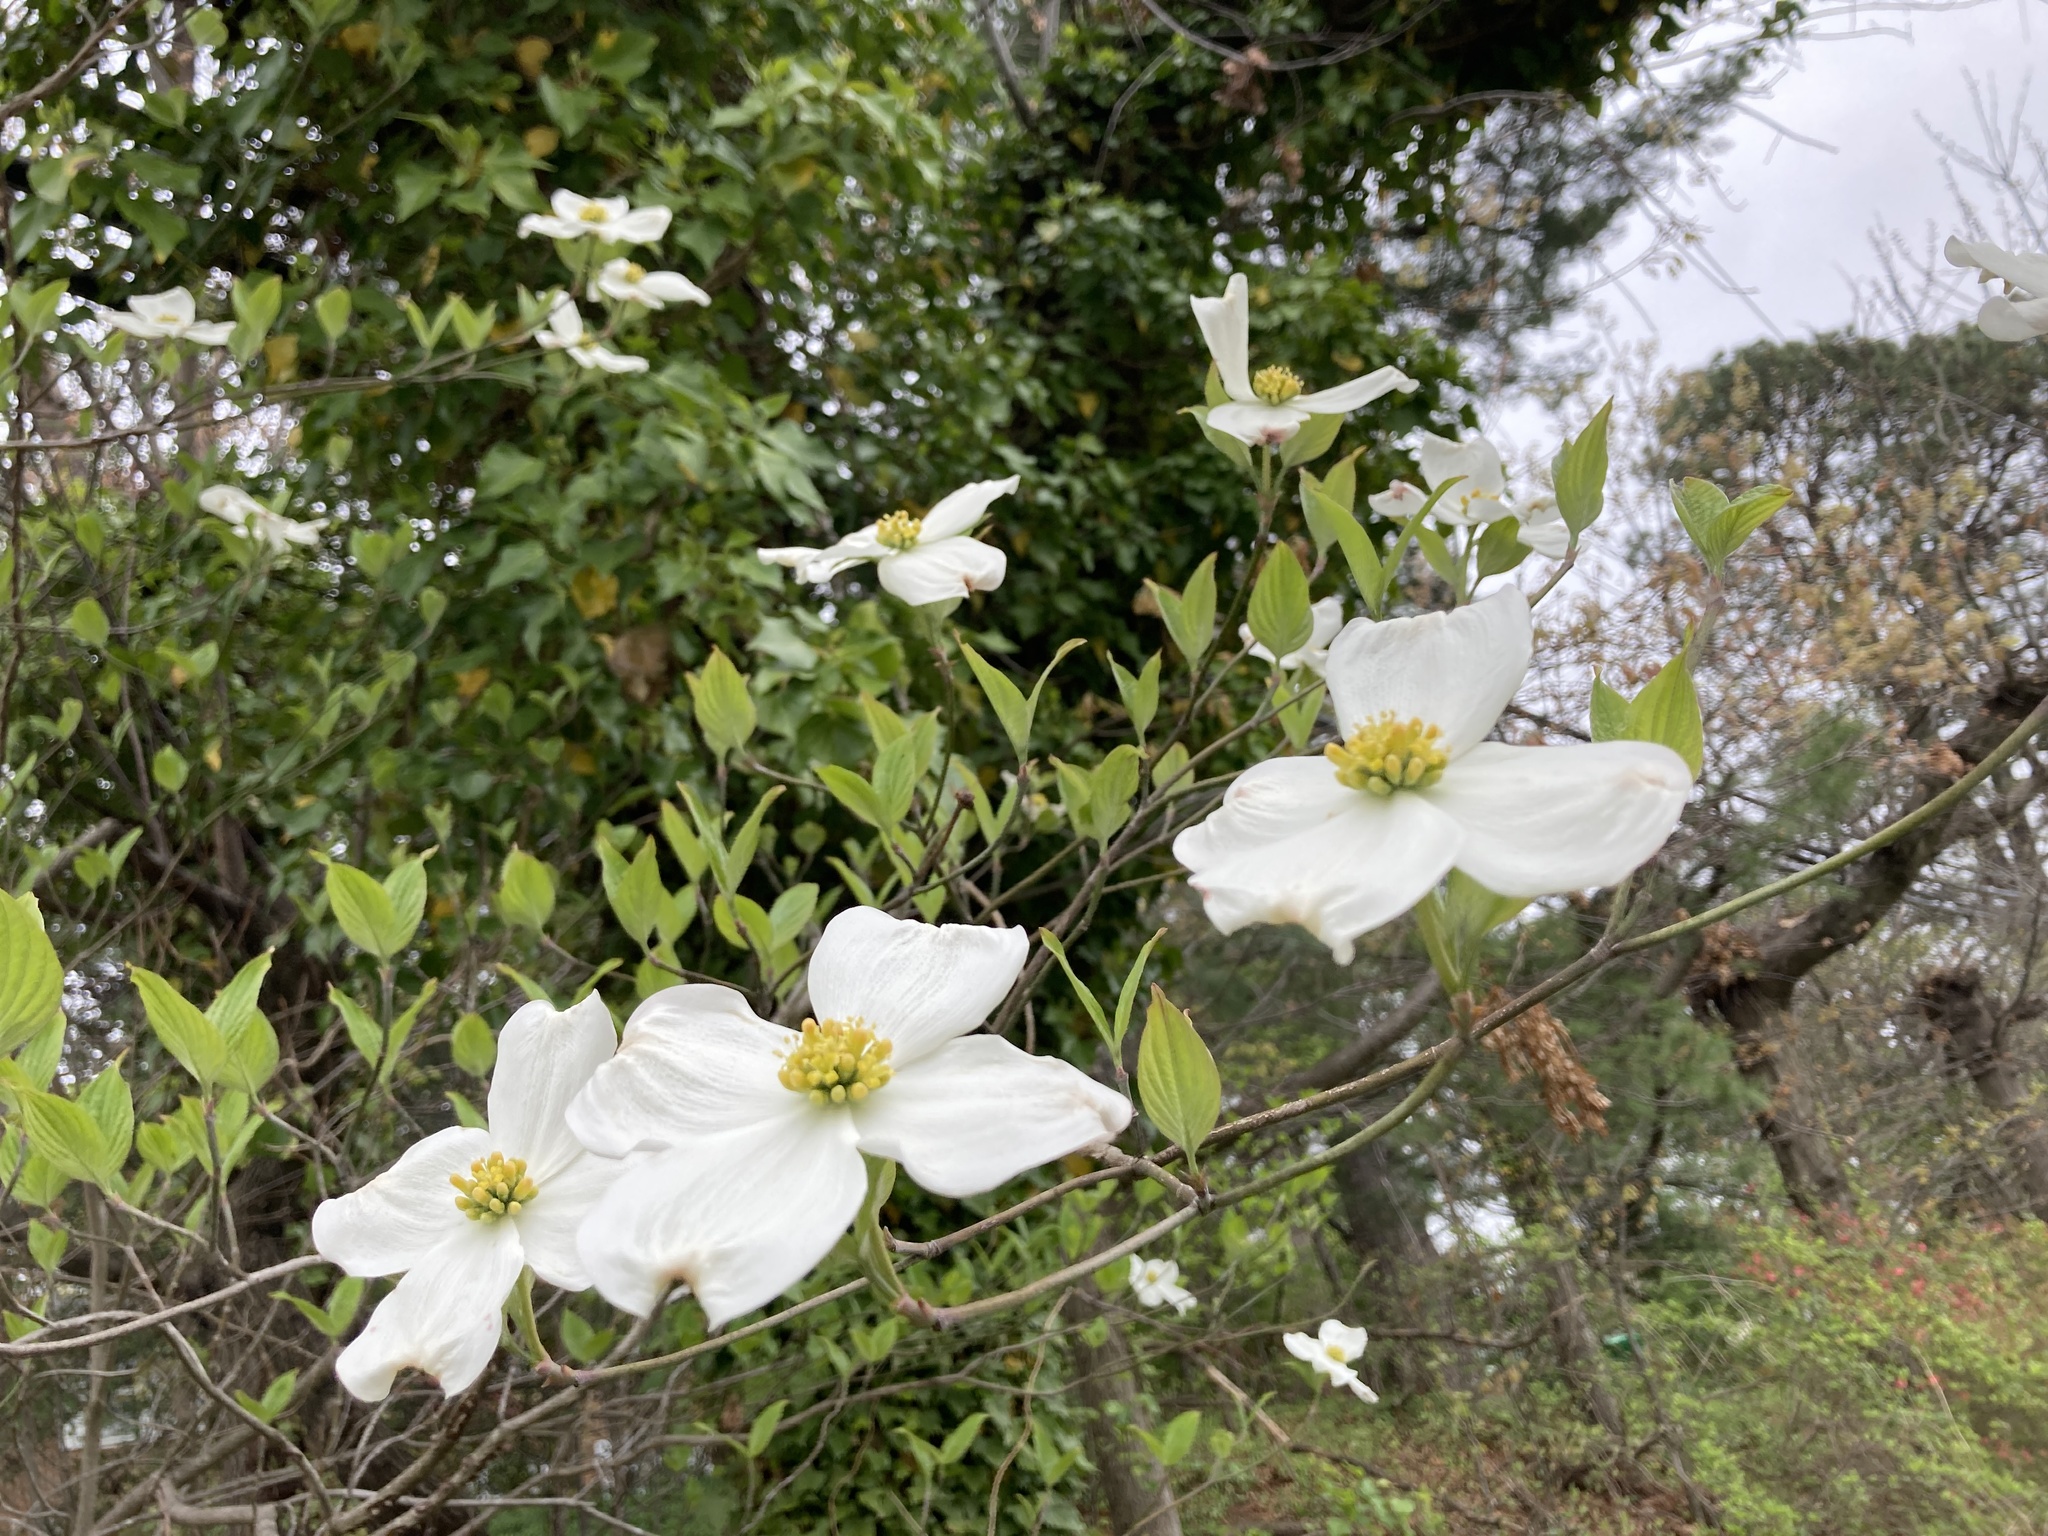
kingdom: Plantae
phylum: Tracheophyta
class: Magnoliopsida
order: Cornales
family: Cornaceae
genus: Cornus
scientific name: Cornus florida
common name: Flowering dogwood
